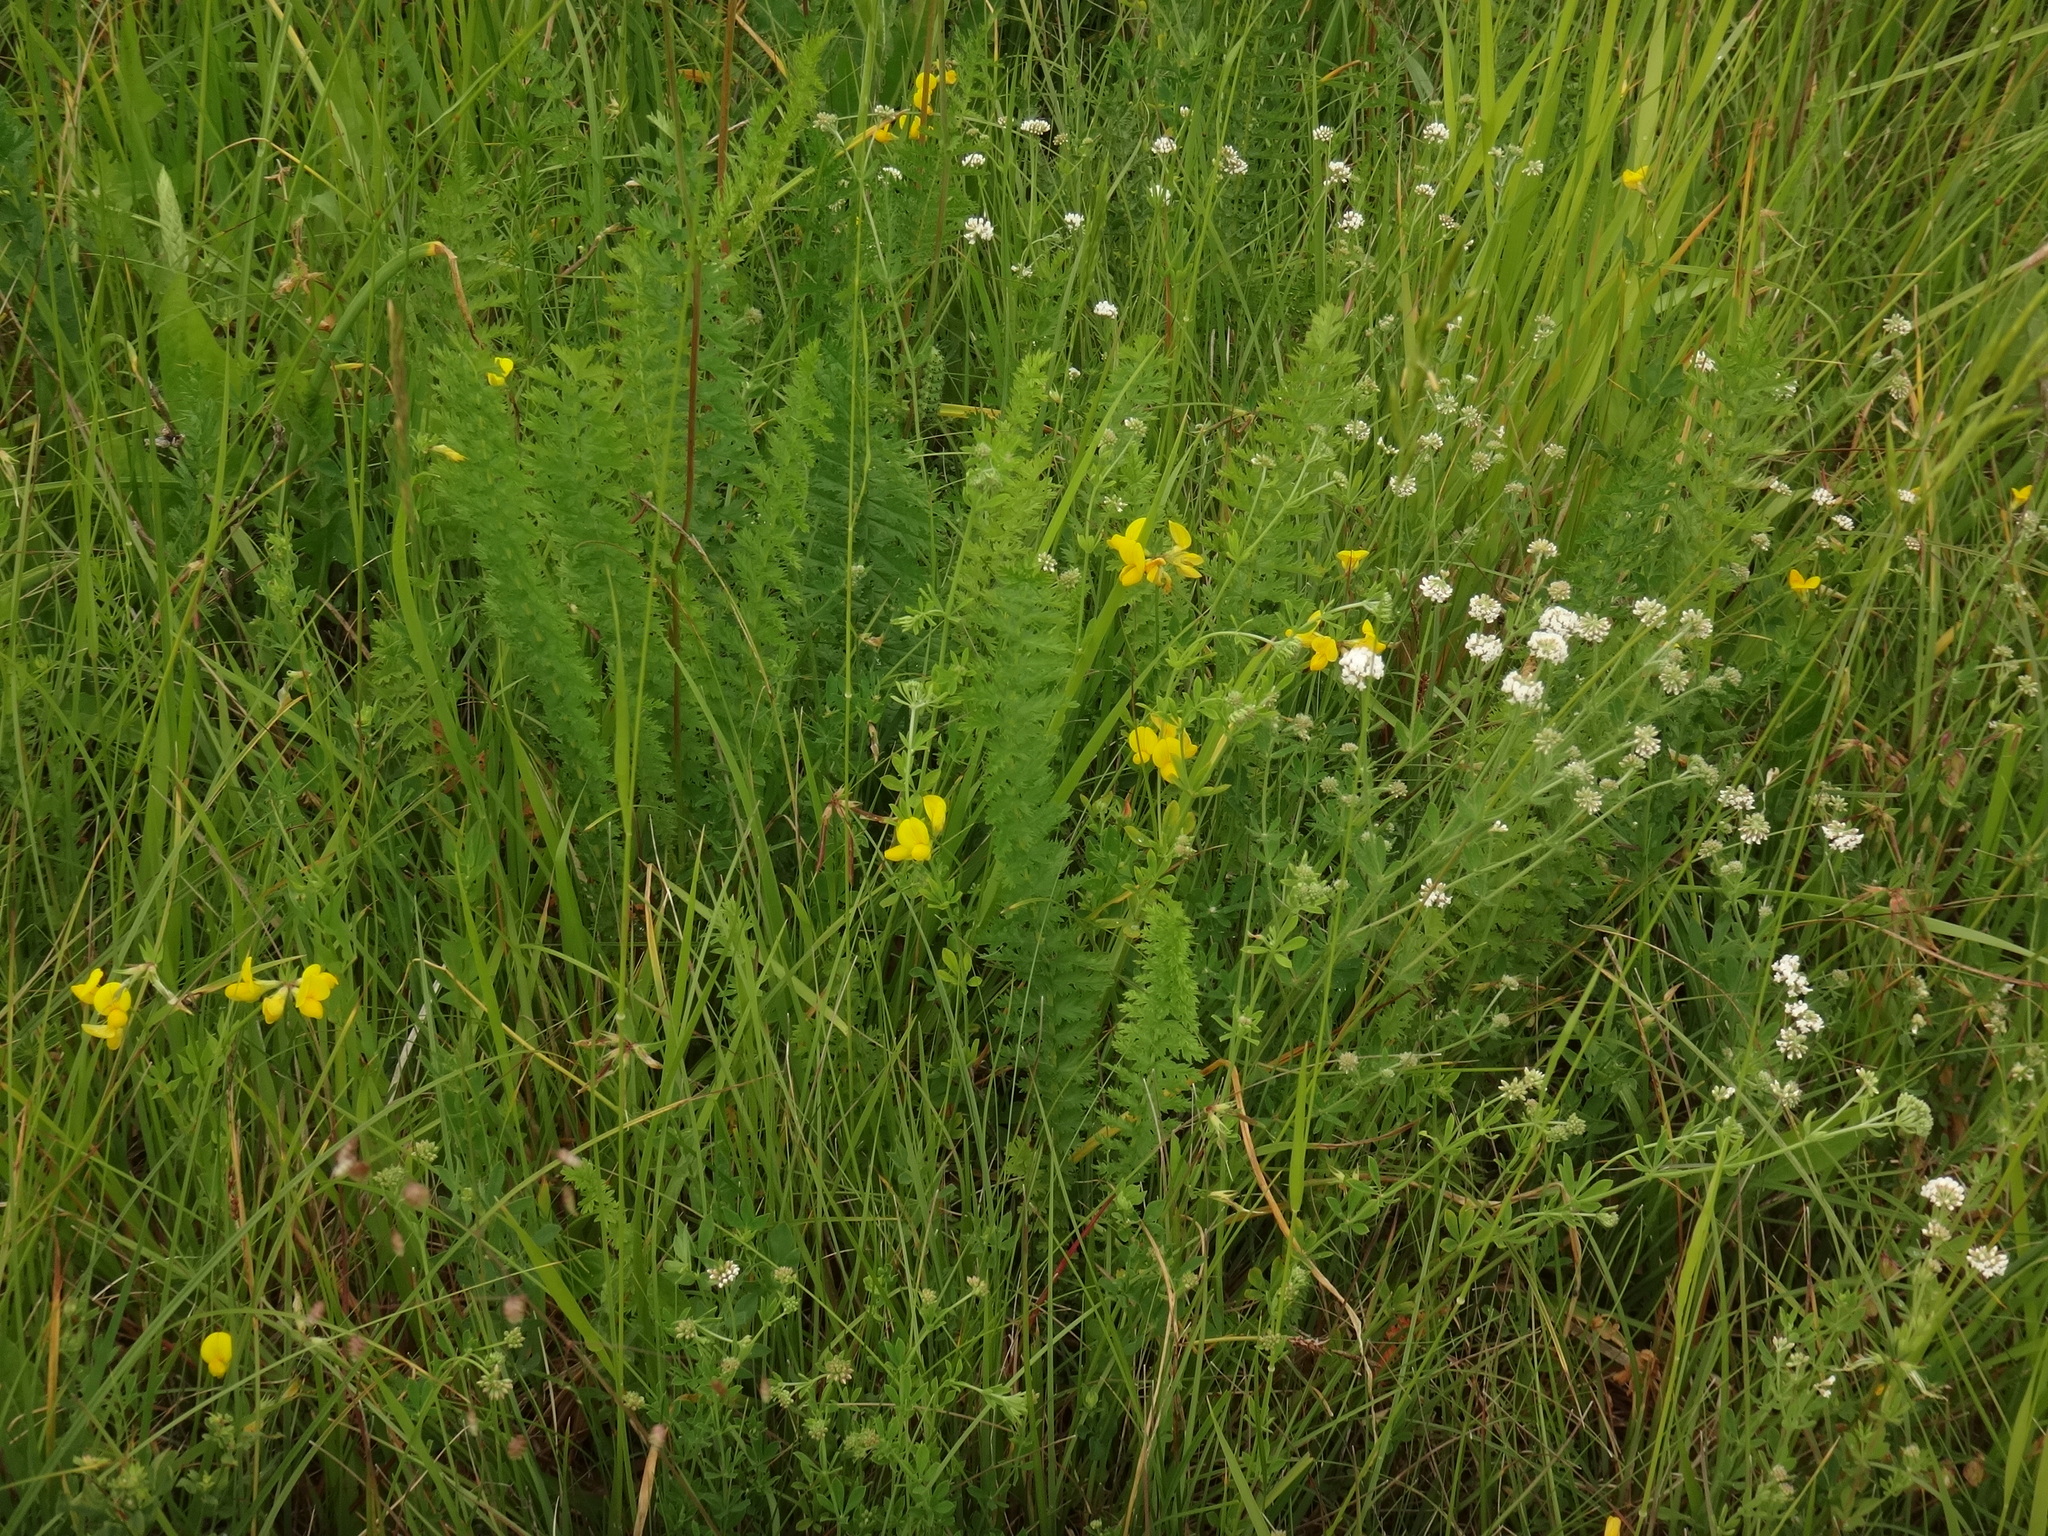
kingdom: Plantae
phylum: Tracheophyta
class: Magnoliopsida
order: Rosales
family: Rosaceae
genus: Filipendula
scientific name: Filipendula vulgaris
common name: Dropwort
